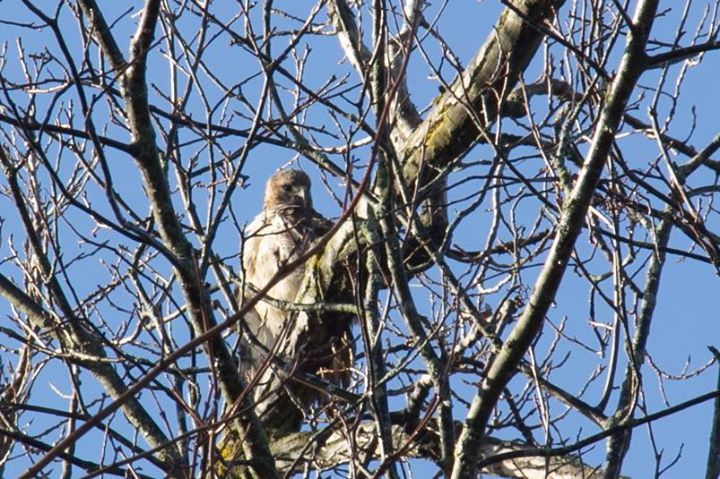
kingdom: Animalia
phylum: Chordata
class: Aves
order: Accipitriformes
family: Accipitridae
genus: Buteo
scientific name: Buteo jamaicensis
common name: Red-tailed hawk
